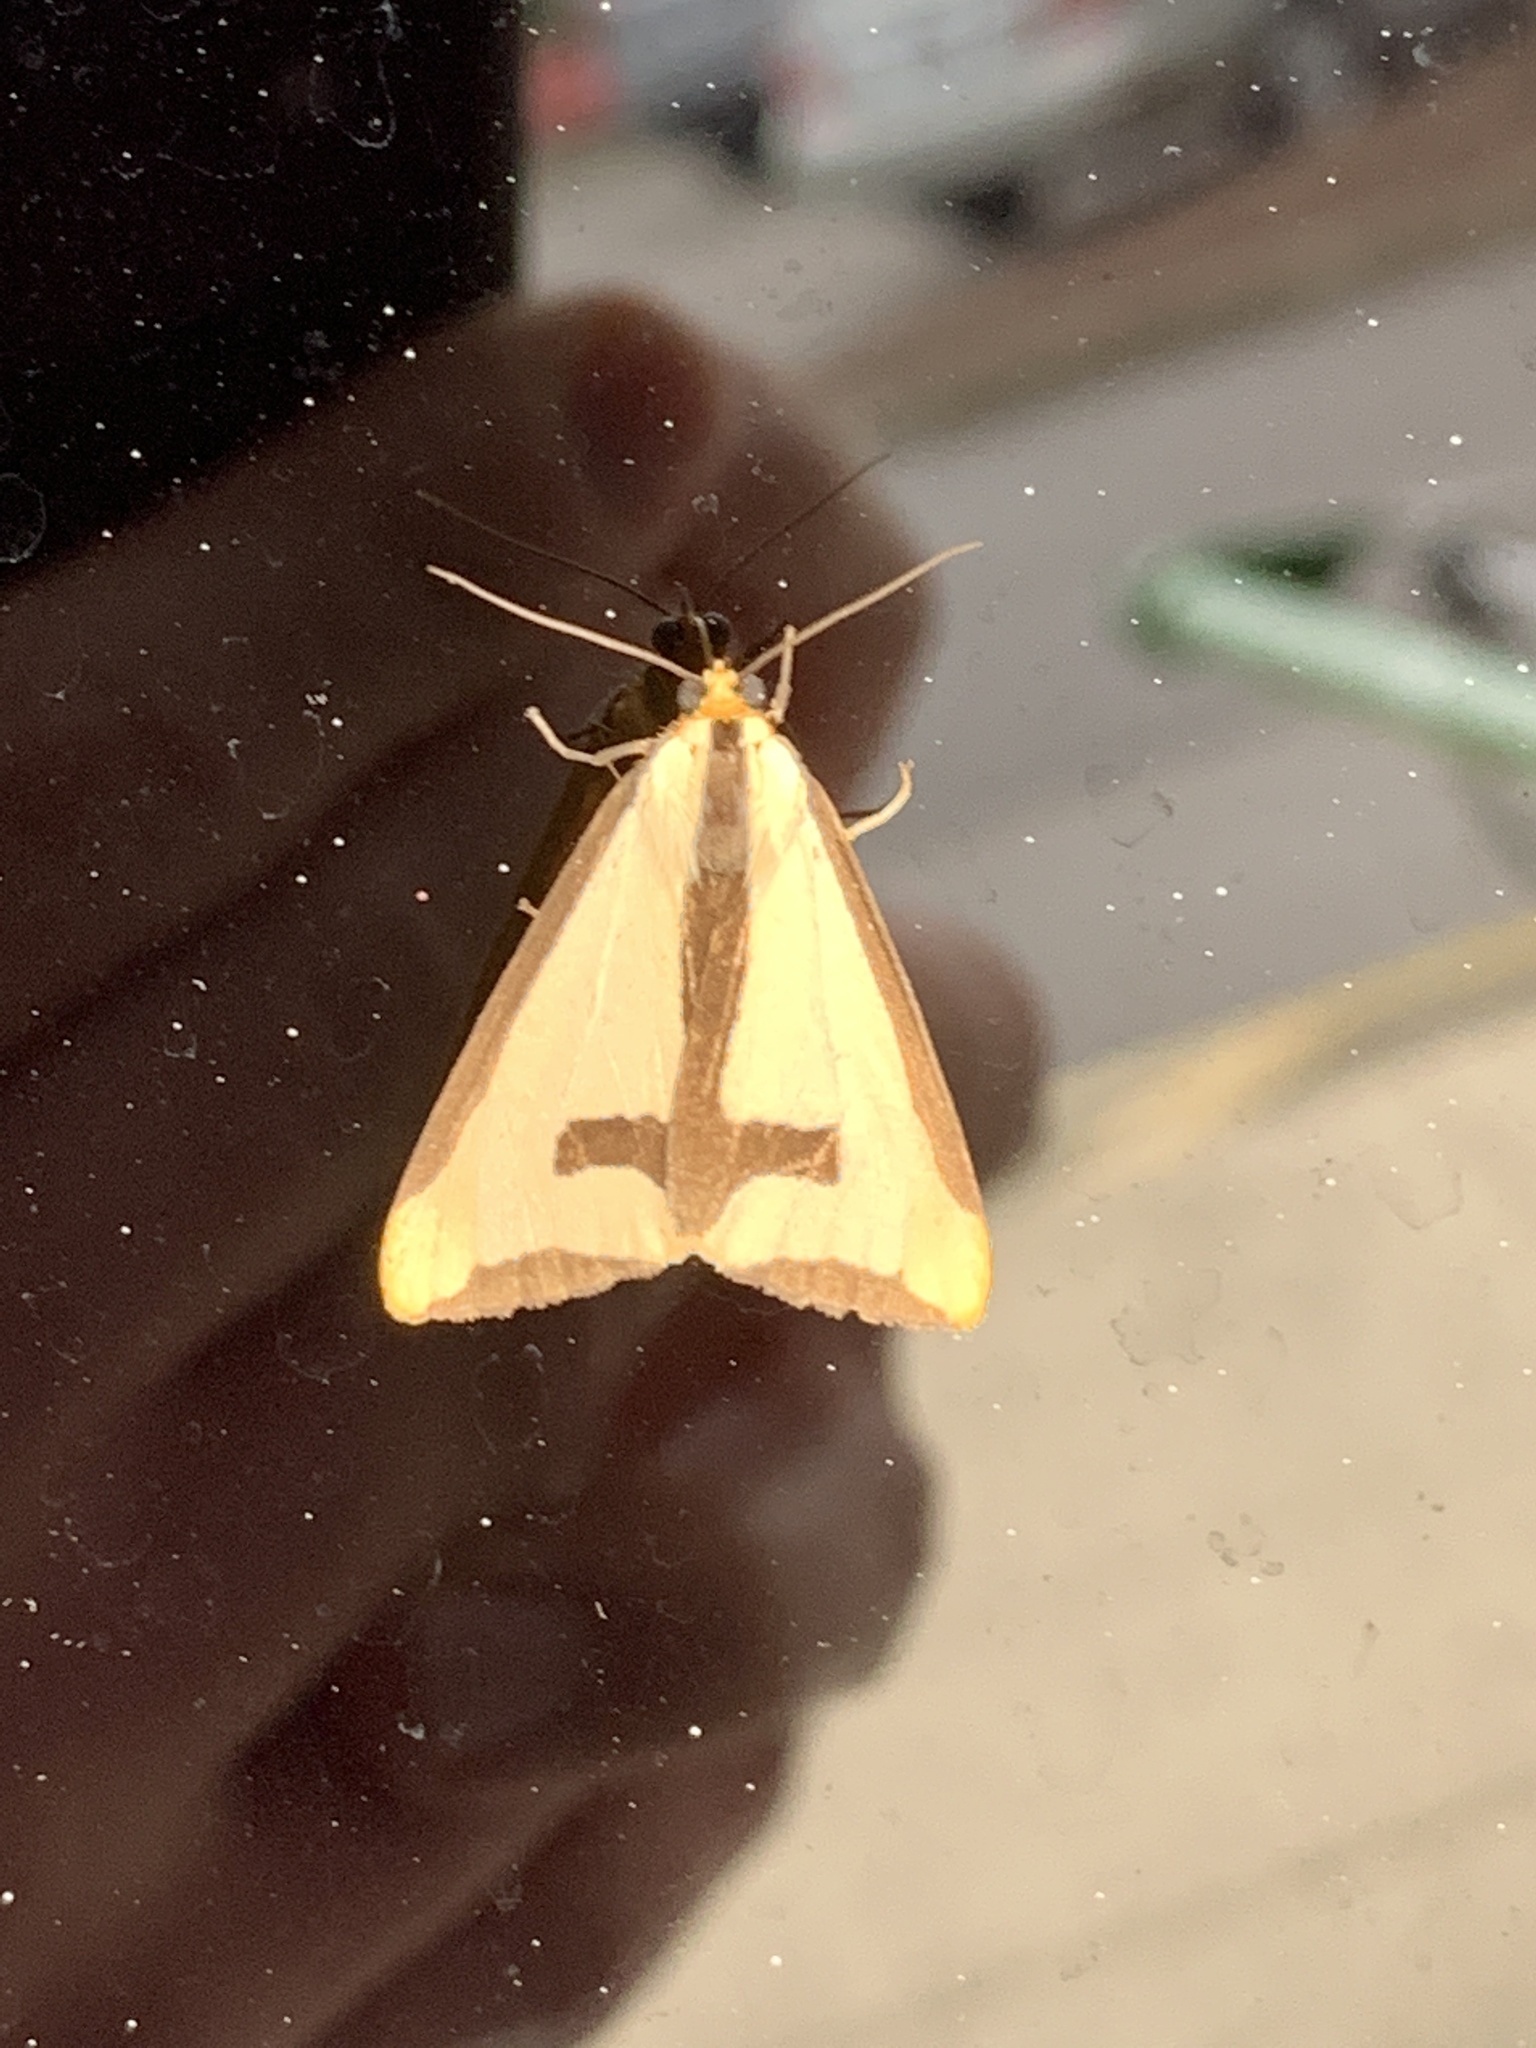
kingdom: Animalia
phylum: Arthropoda
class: Insecta
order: Lepidoptera
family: Erebidae
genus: Haploa
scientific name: Haploa clymene
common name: Clymene moth
